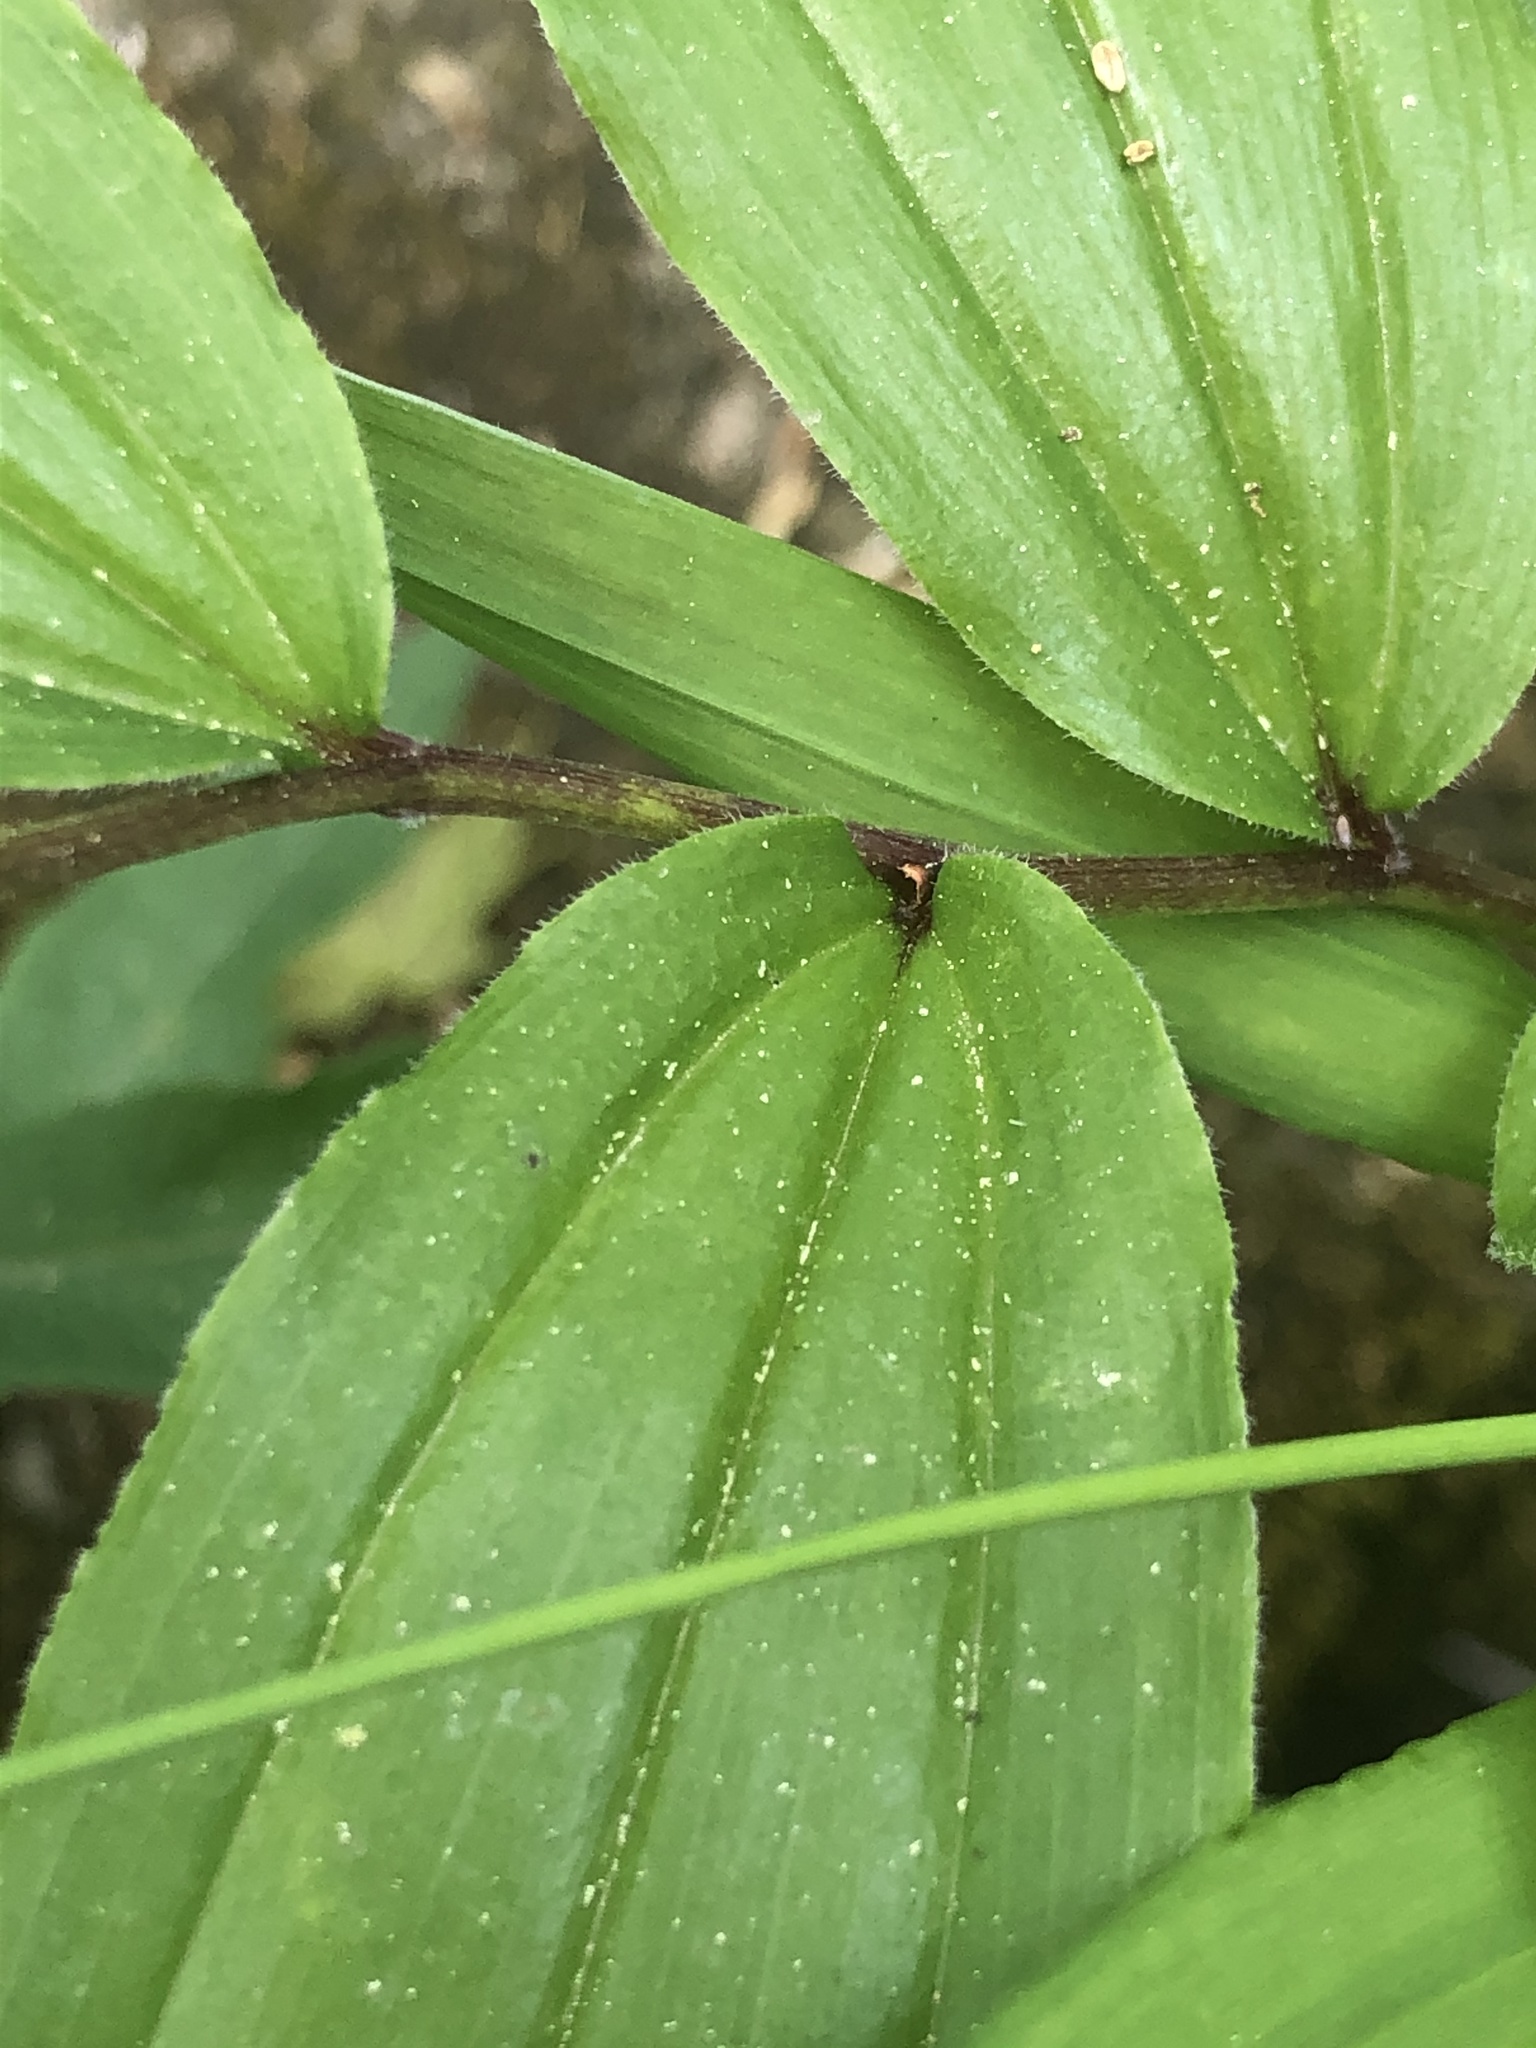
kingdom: Plantae
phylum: Tracheophyta
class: Liliopsida
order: Asparagales
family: Asparagaceae
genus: Maianthemum
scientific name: Maianthemum racemosum
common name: False spikenard
